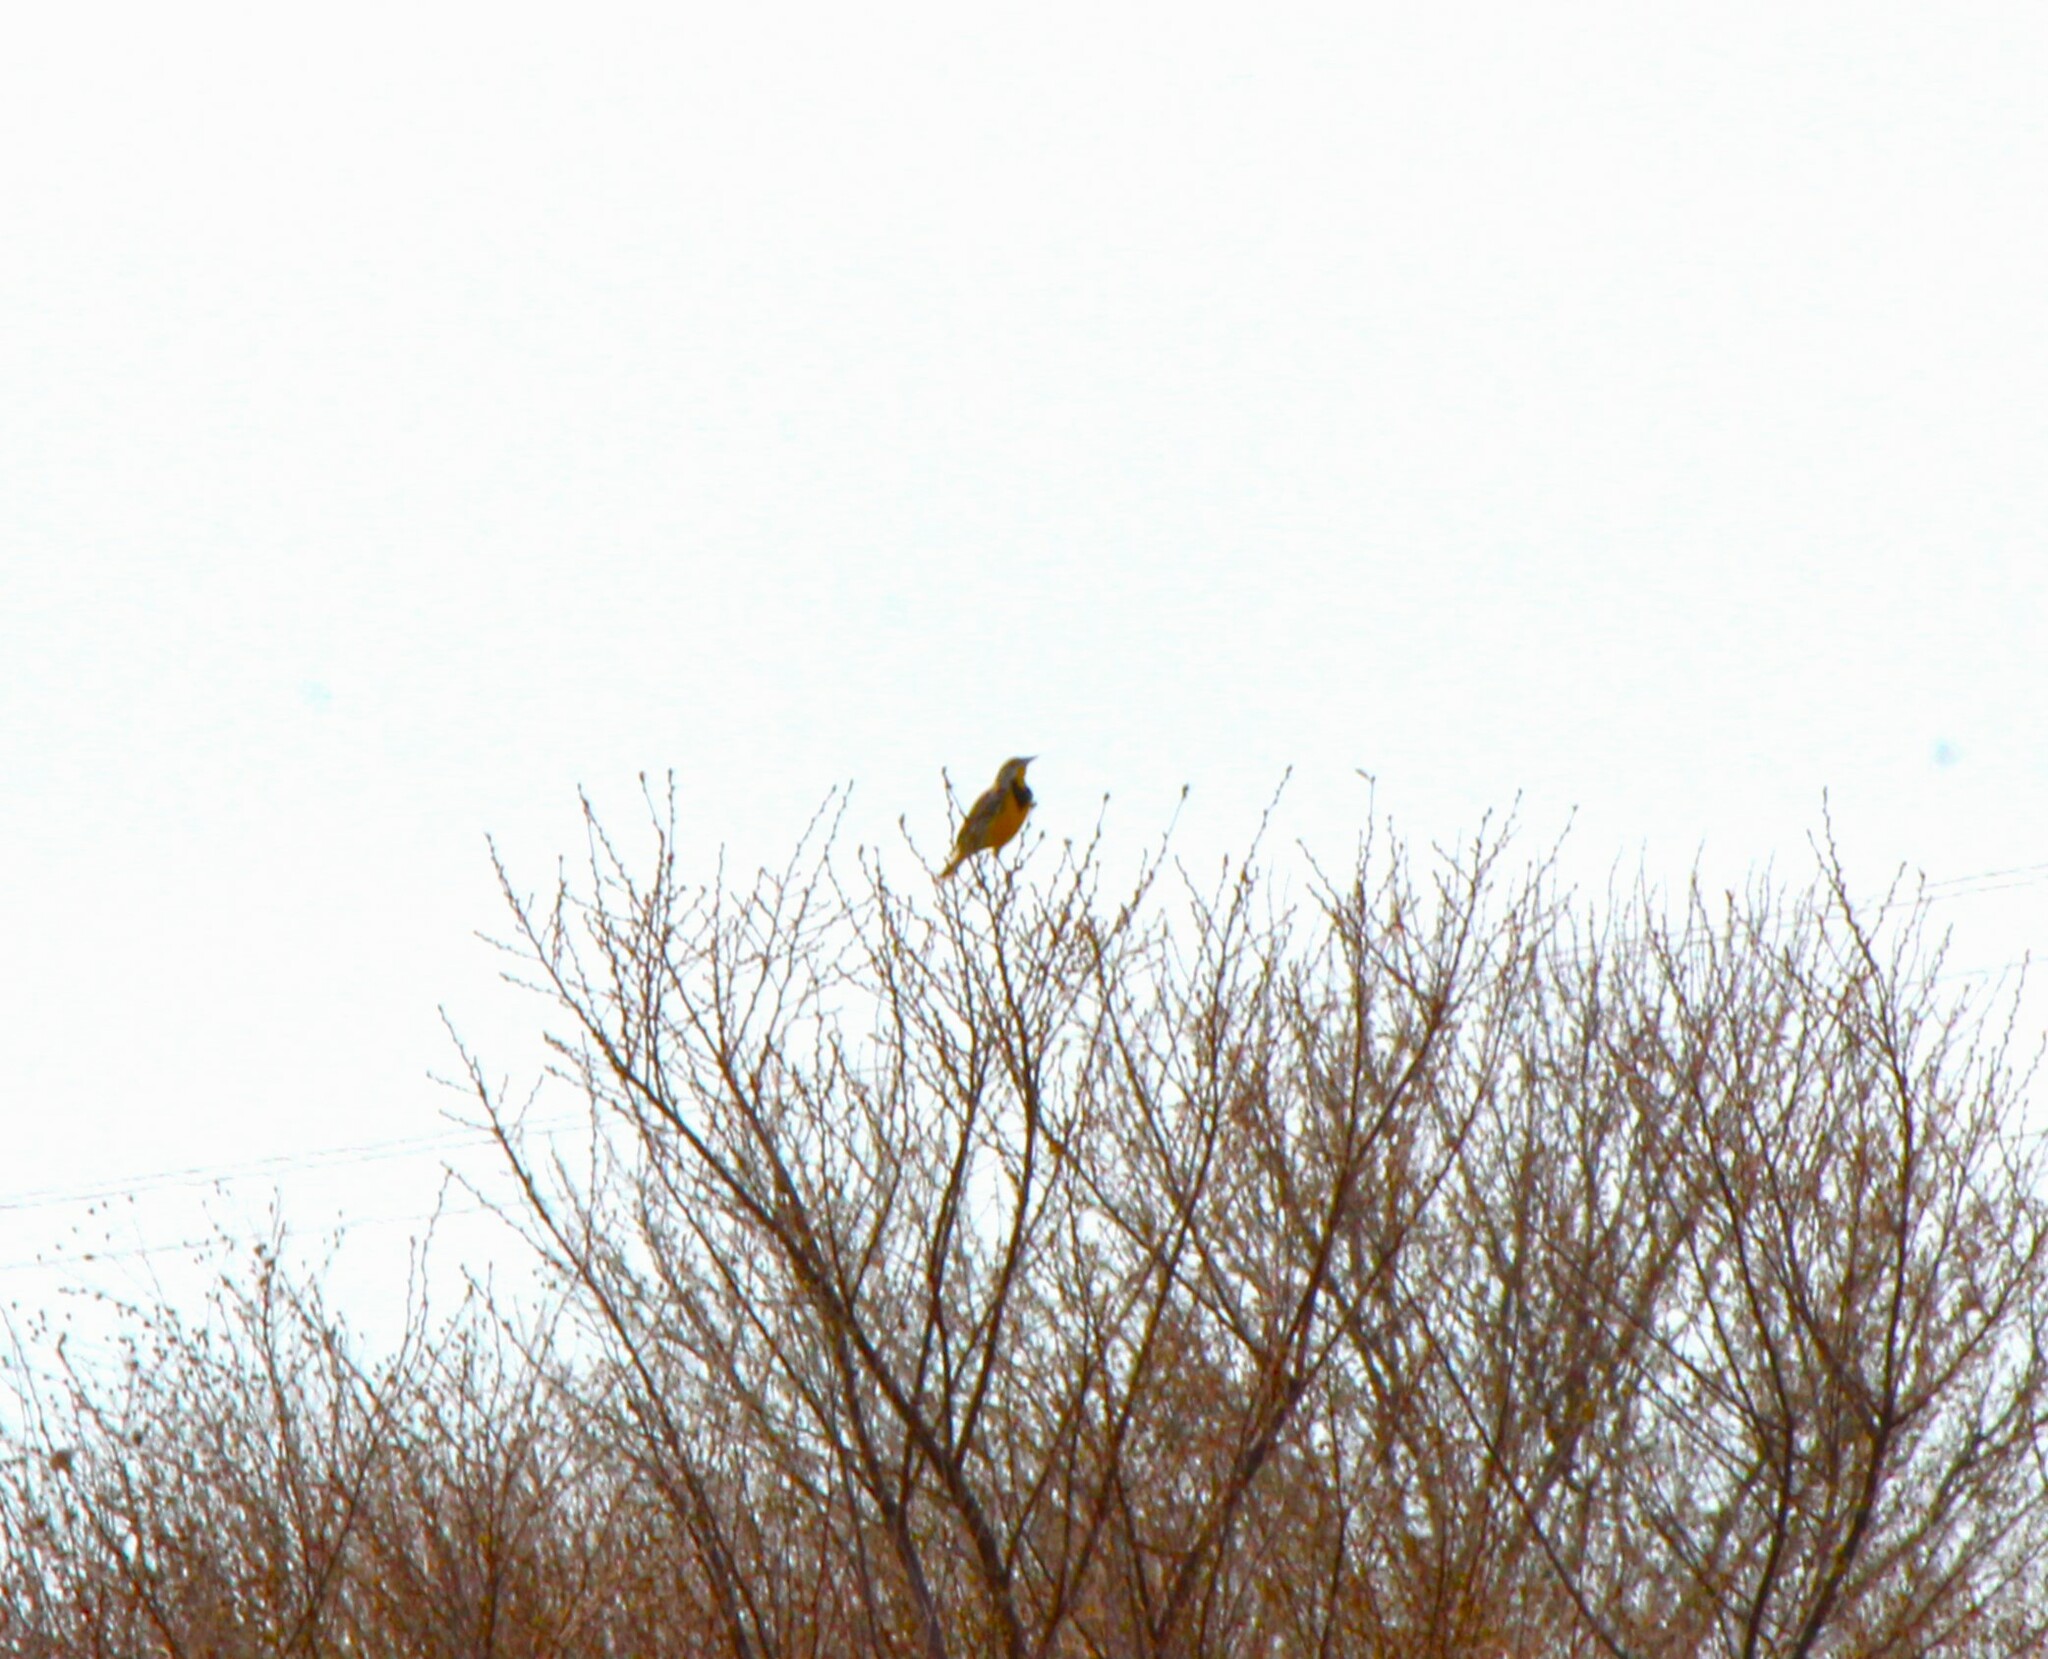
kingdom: Animalia
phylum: Chordata
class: Aves
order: Passeriformes
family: Icteridae
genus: Sturnella
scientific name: Sturnella magna
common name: Eastern meadowlark
